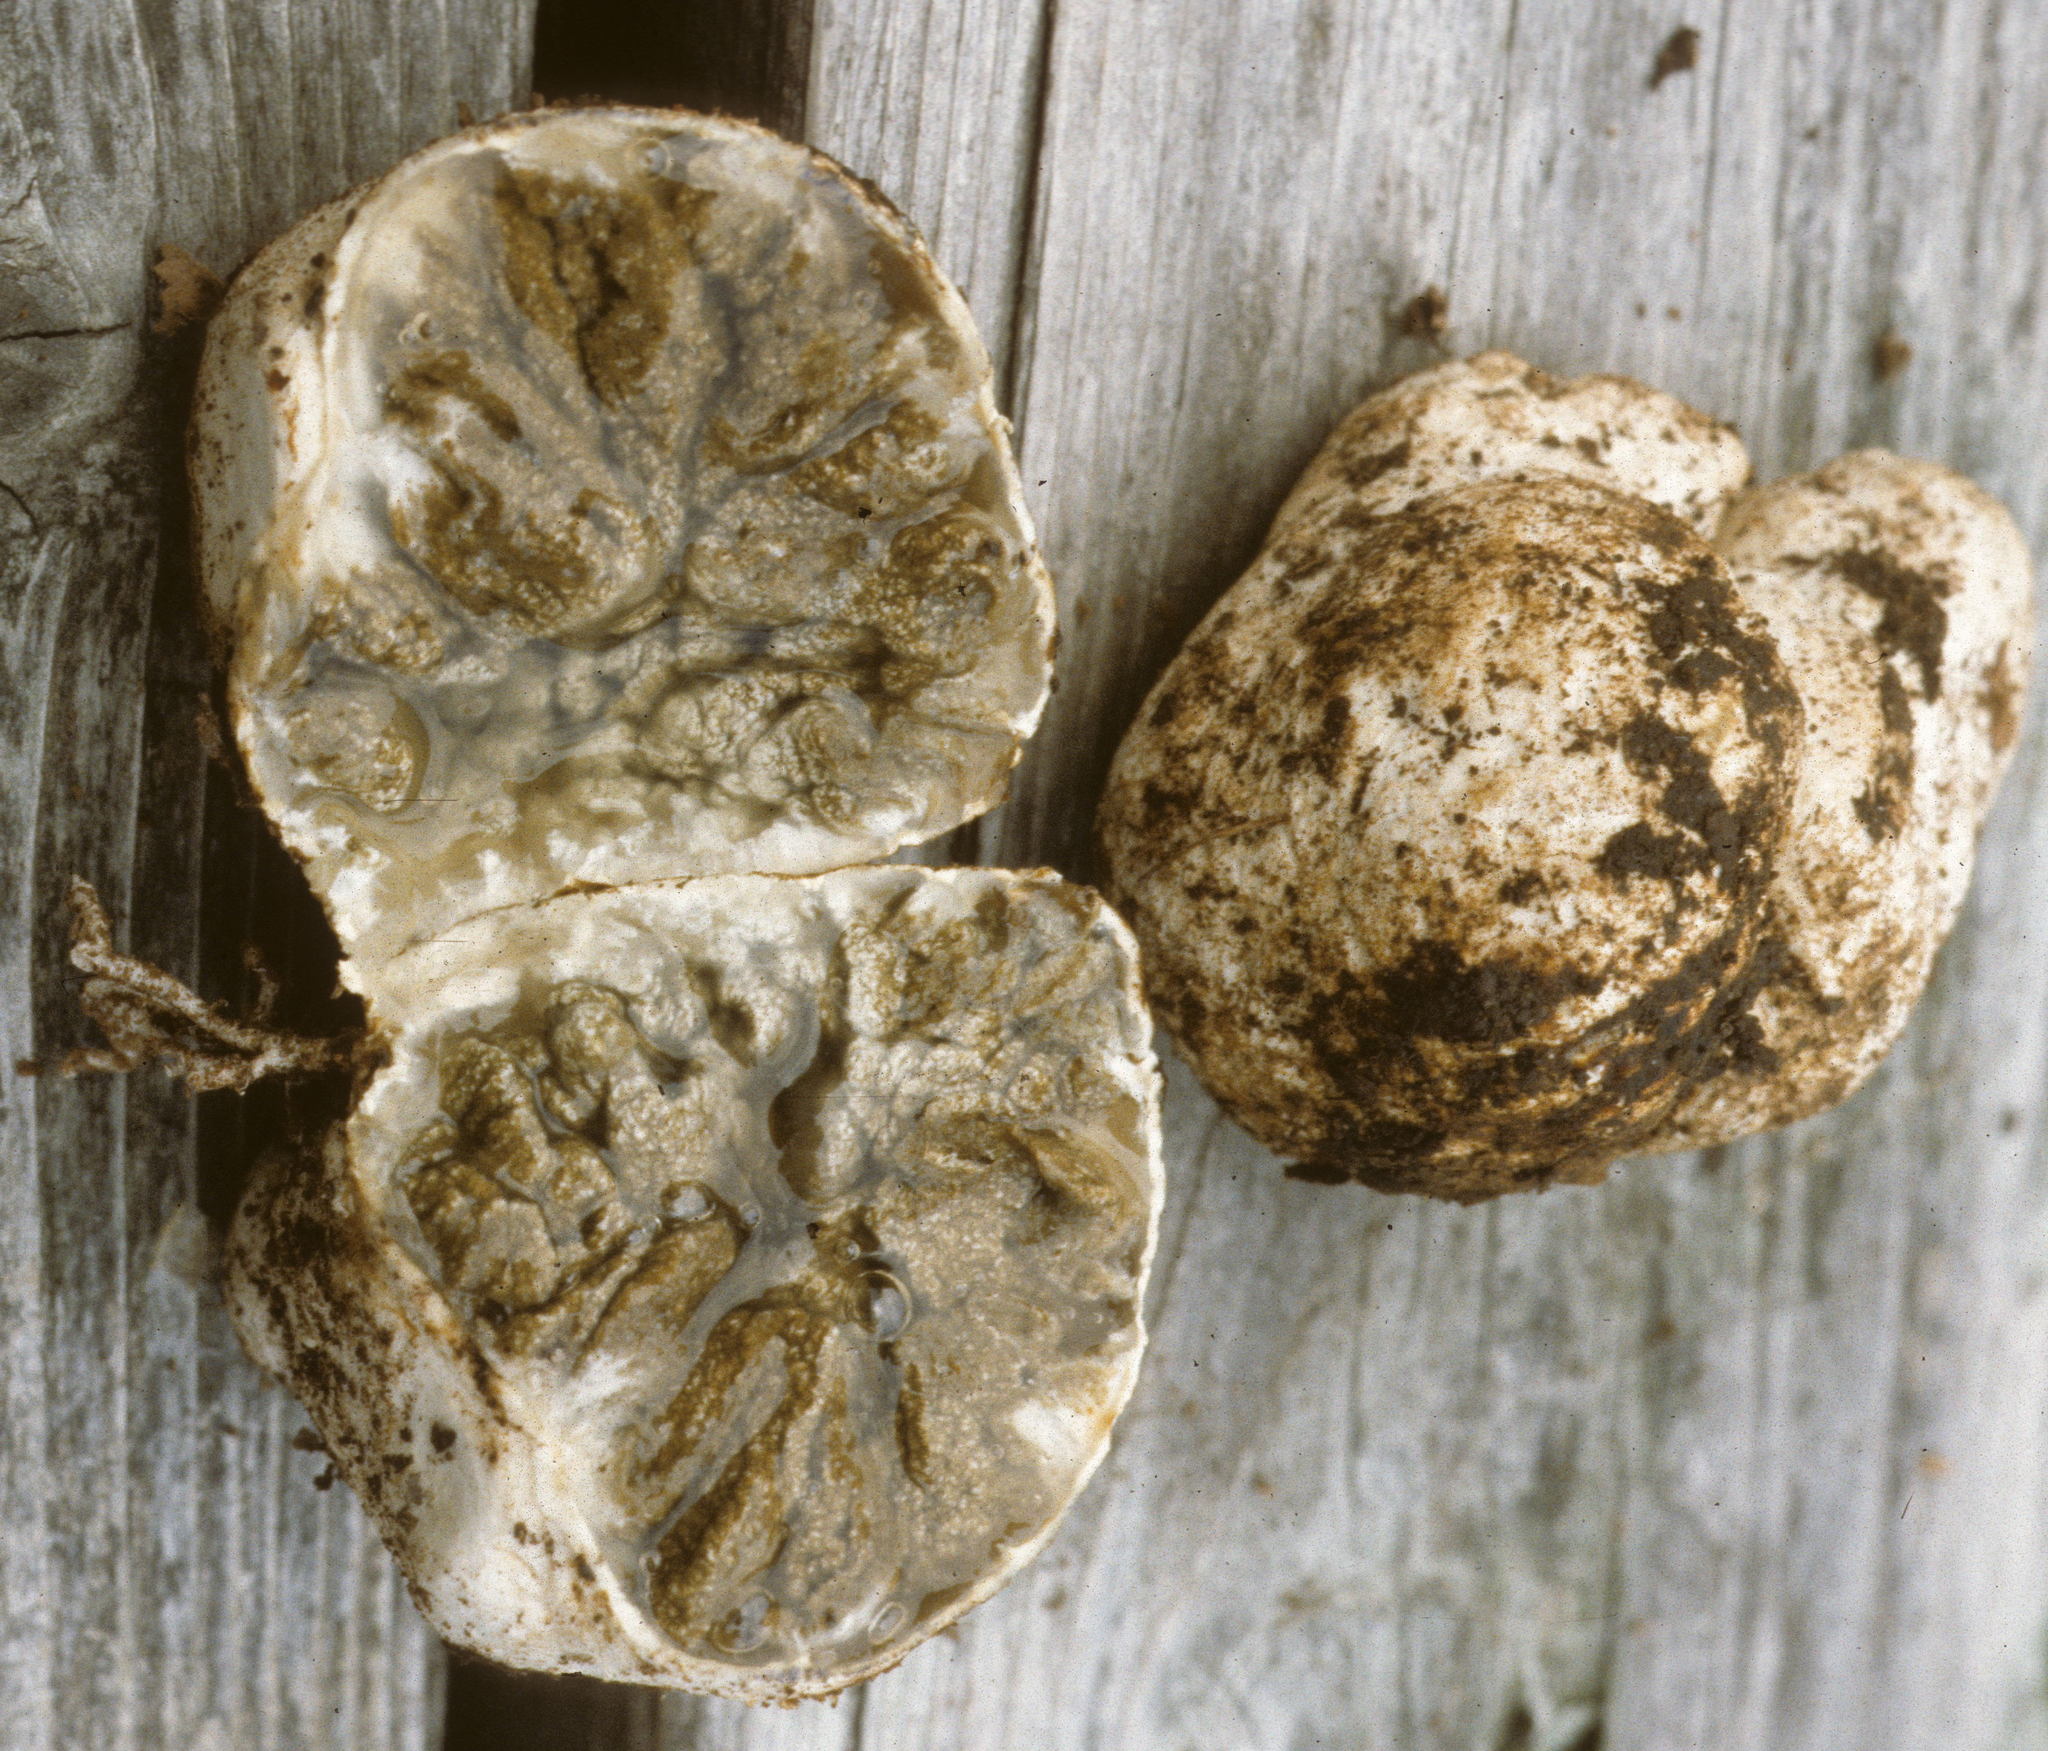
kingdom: Fungi
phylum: Basidiomycota
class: Agaricomycetes
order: Hysterangiales
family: Phallogastraceae
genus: Protubera
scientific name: Protubera sabulonensis
